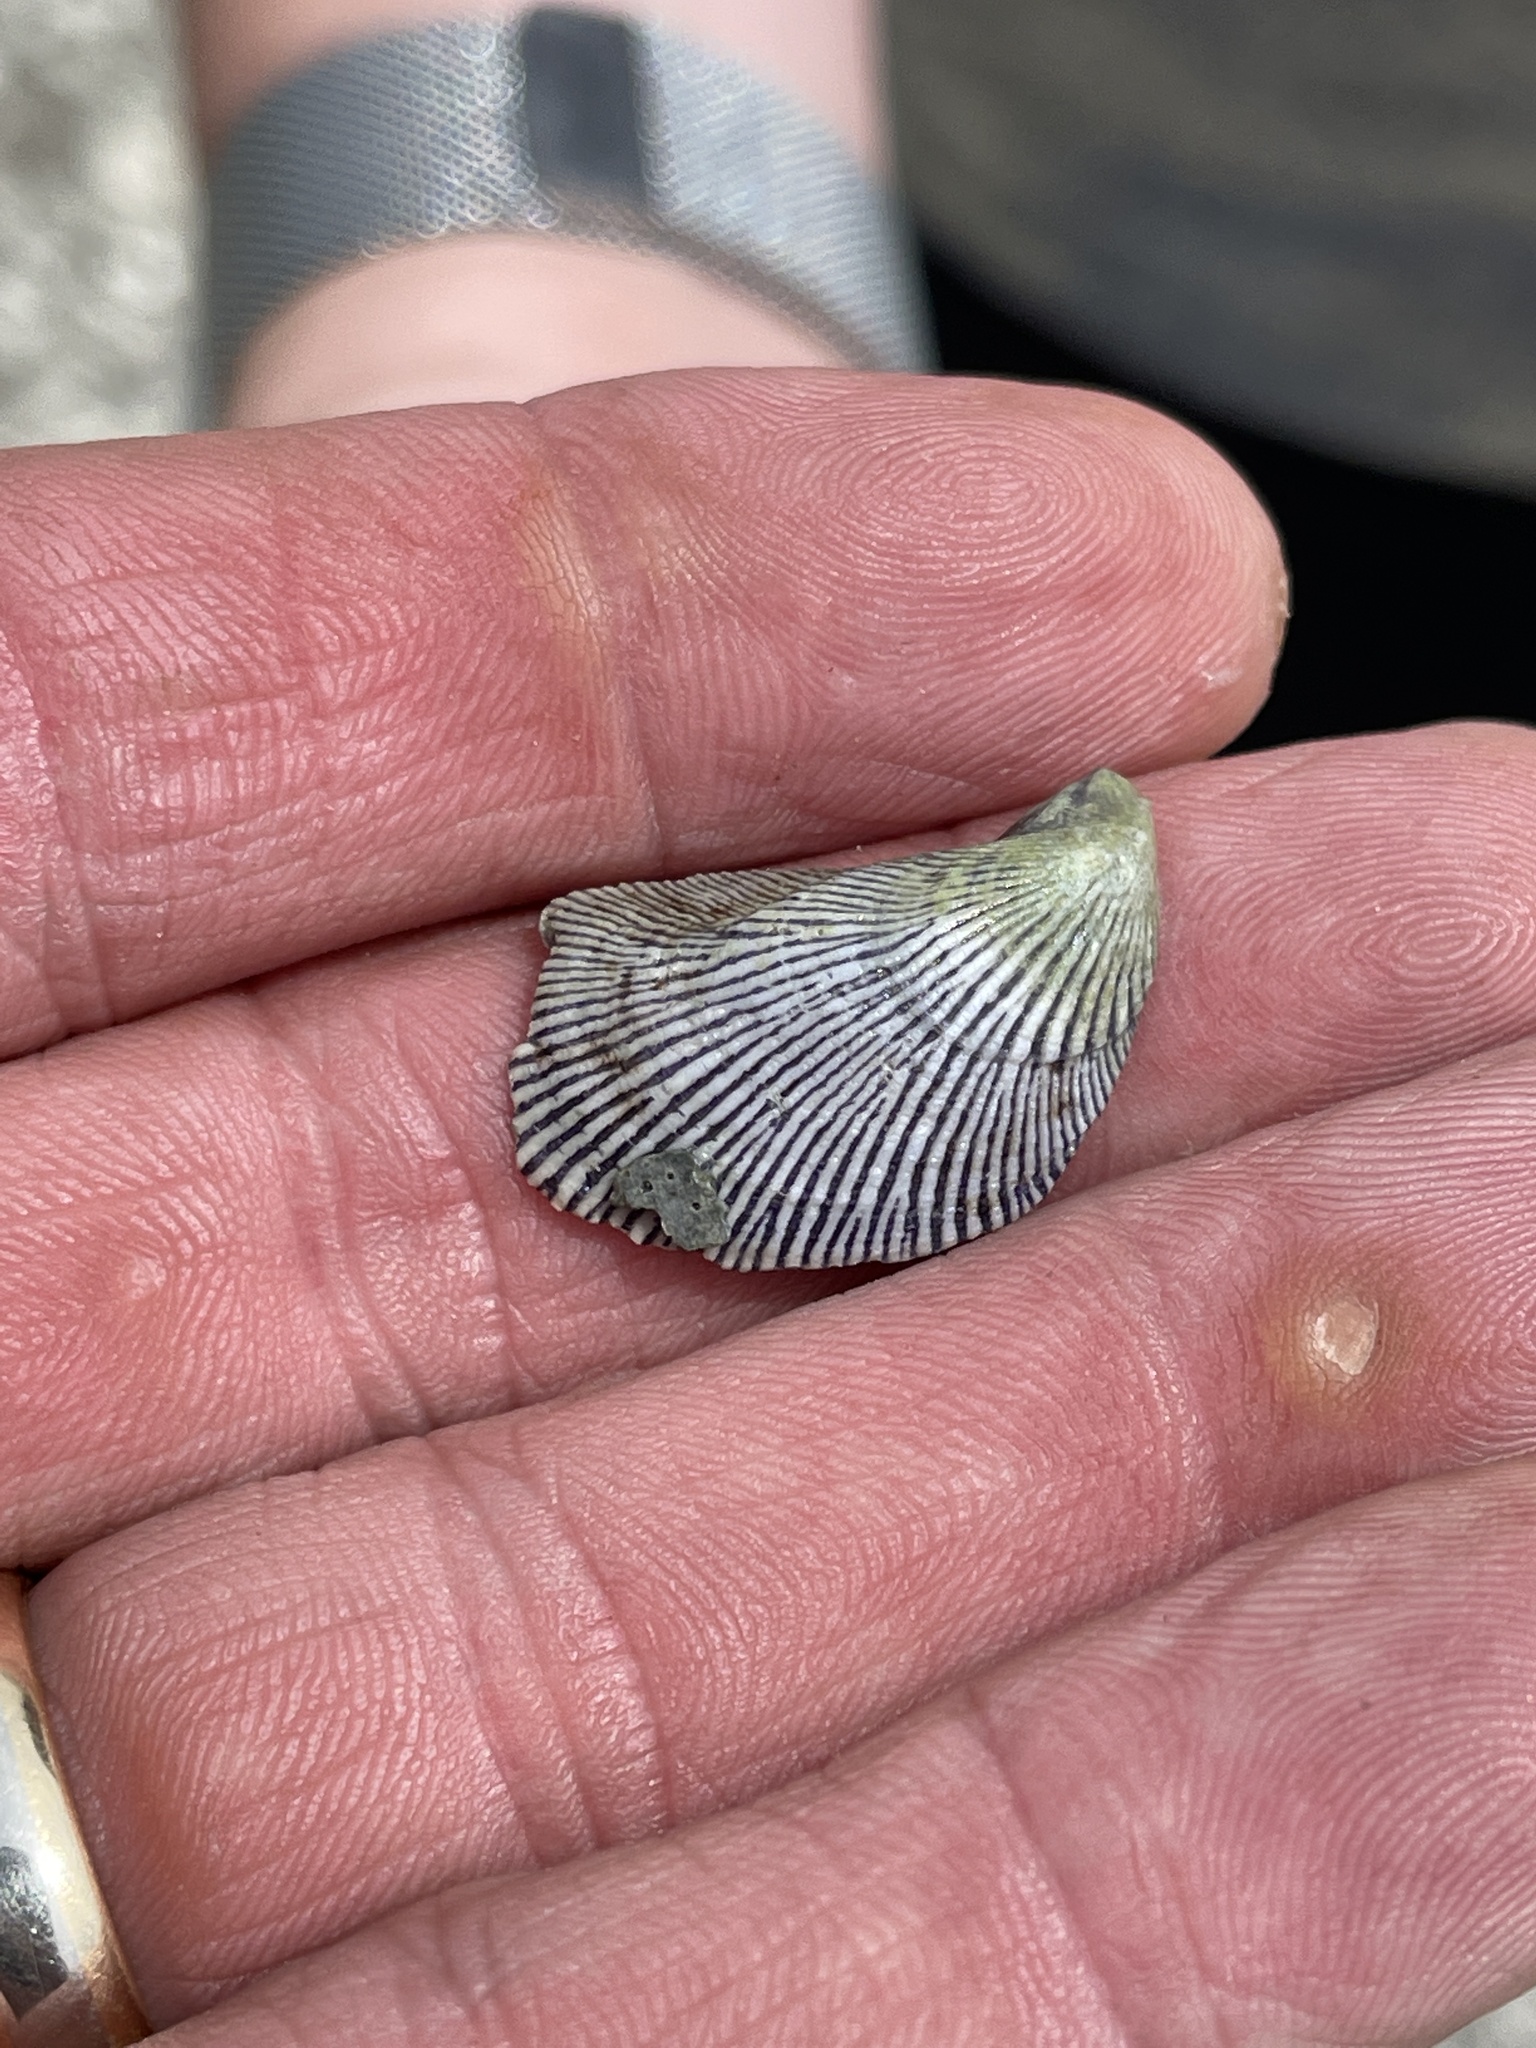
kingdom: Animalia
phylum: Mollusca
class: Bivalvia
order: Mytilida
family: Mytilidae
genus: Ischadium
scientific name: Ischadium recurvum
